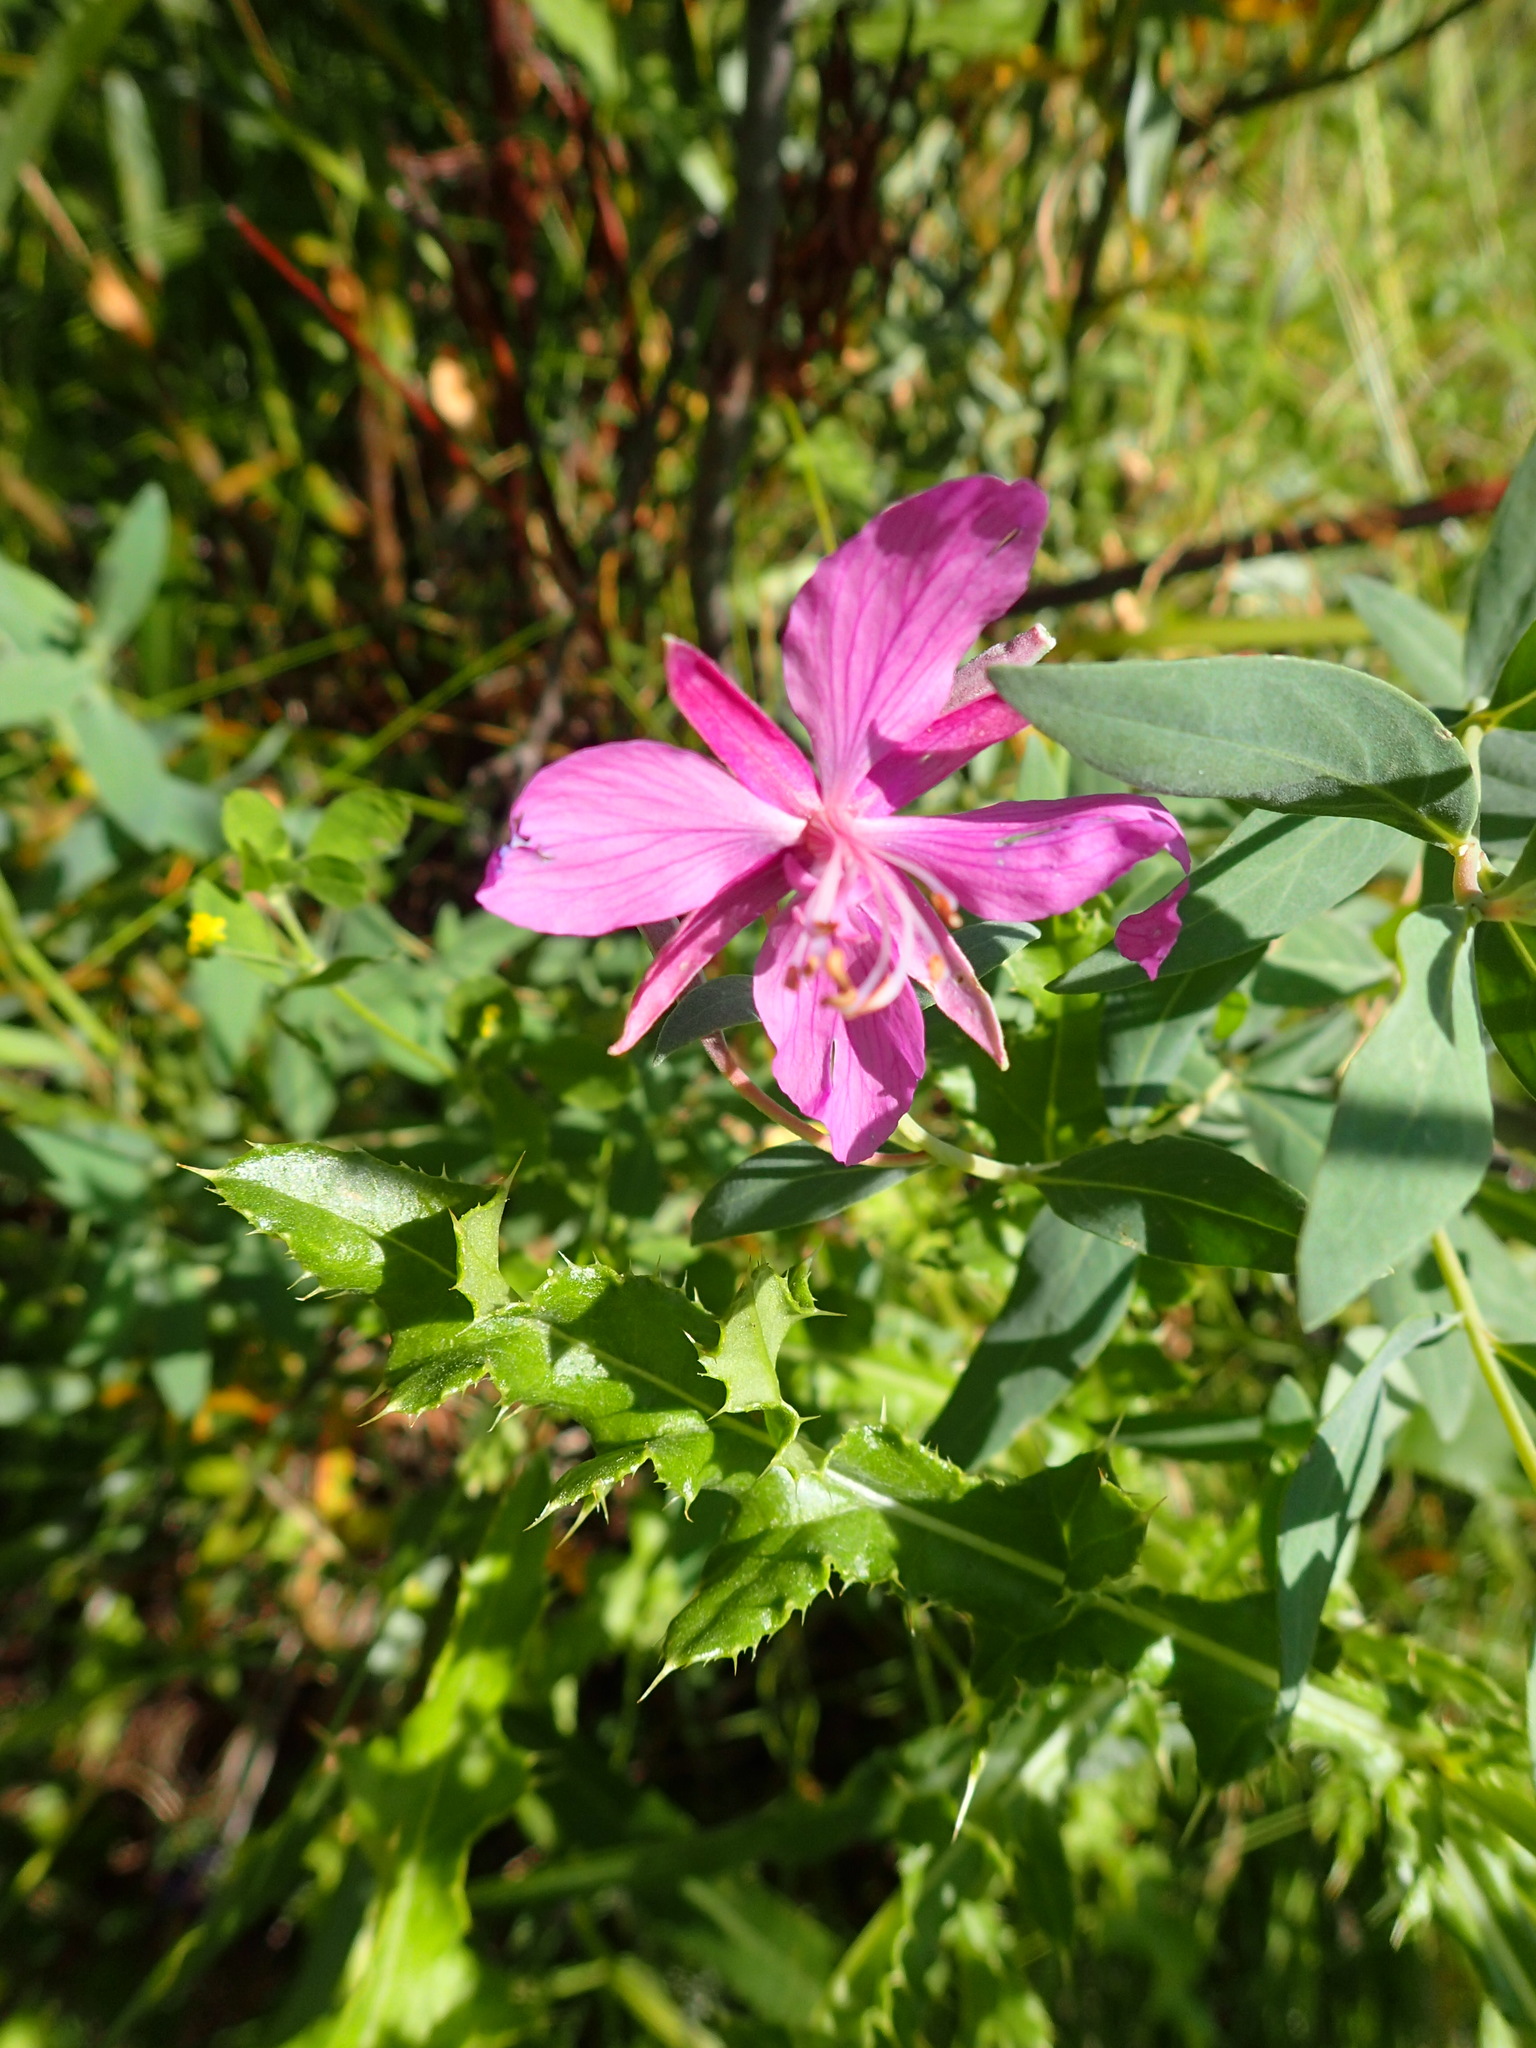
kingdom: Plantae
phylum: Tracheophyta
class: Magnoliopsida
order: Myrtales
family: Onagraceae
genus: Chamaenerion
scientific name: Chamaenerion latifolium
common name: Dwarf fireweed
